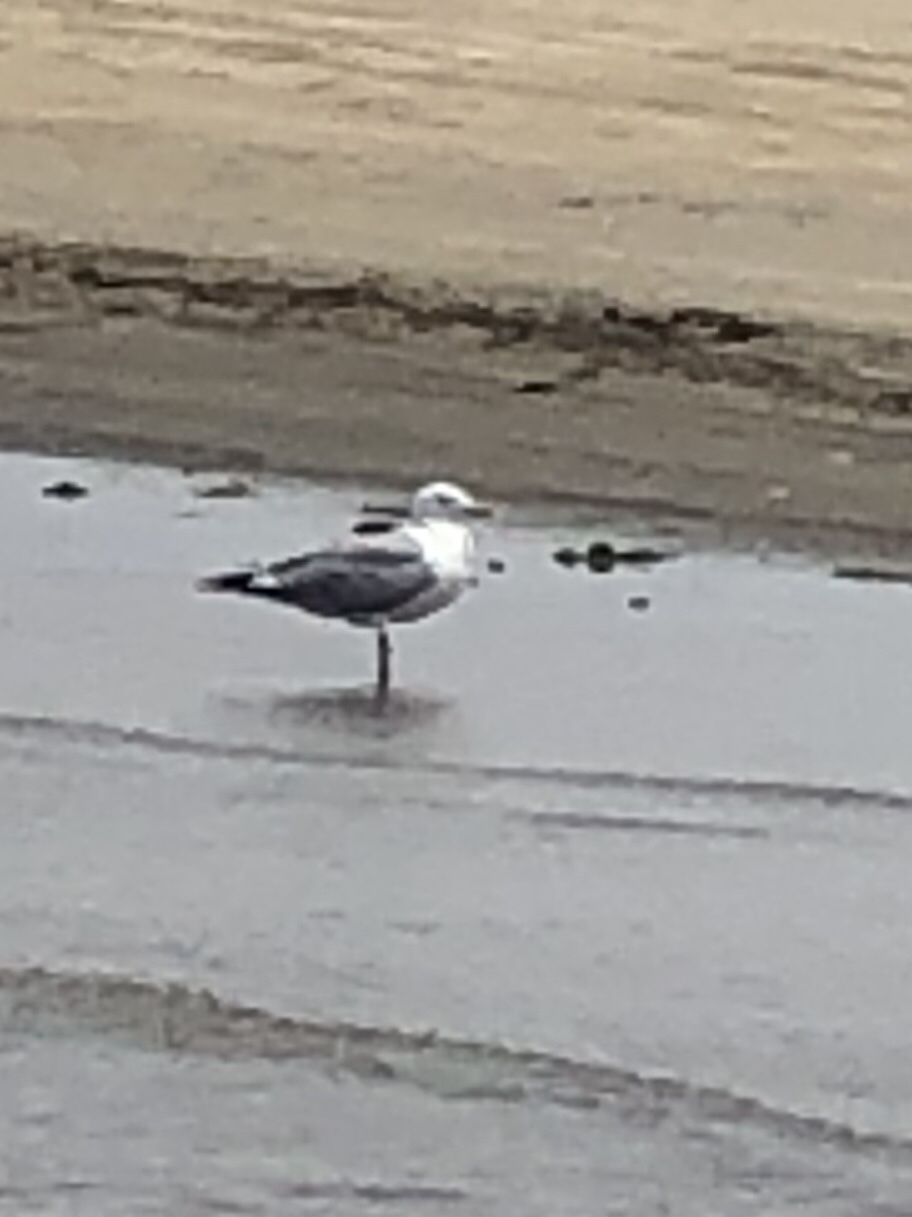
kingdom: Animalia
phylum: Chordata
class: Aves
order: Charadriiformes
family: Laridae
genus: Larus
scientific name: Larus delawarensis
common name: Ring-billed gull
